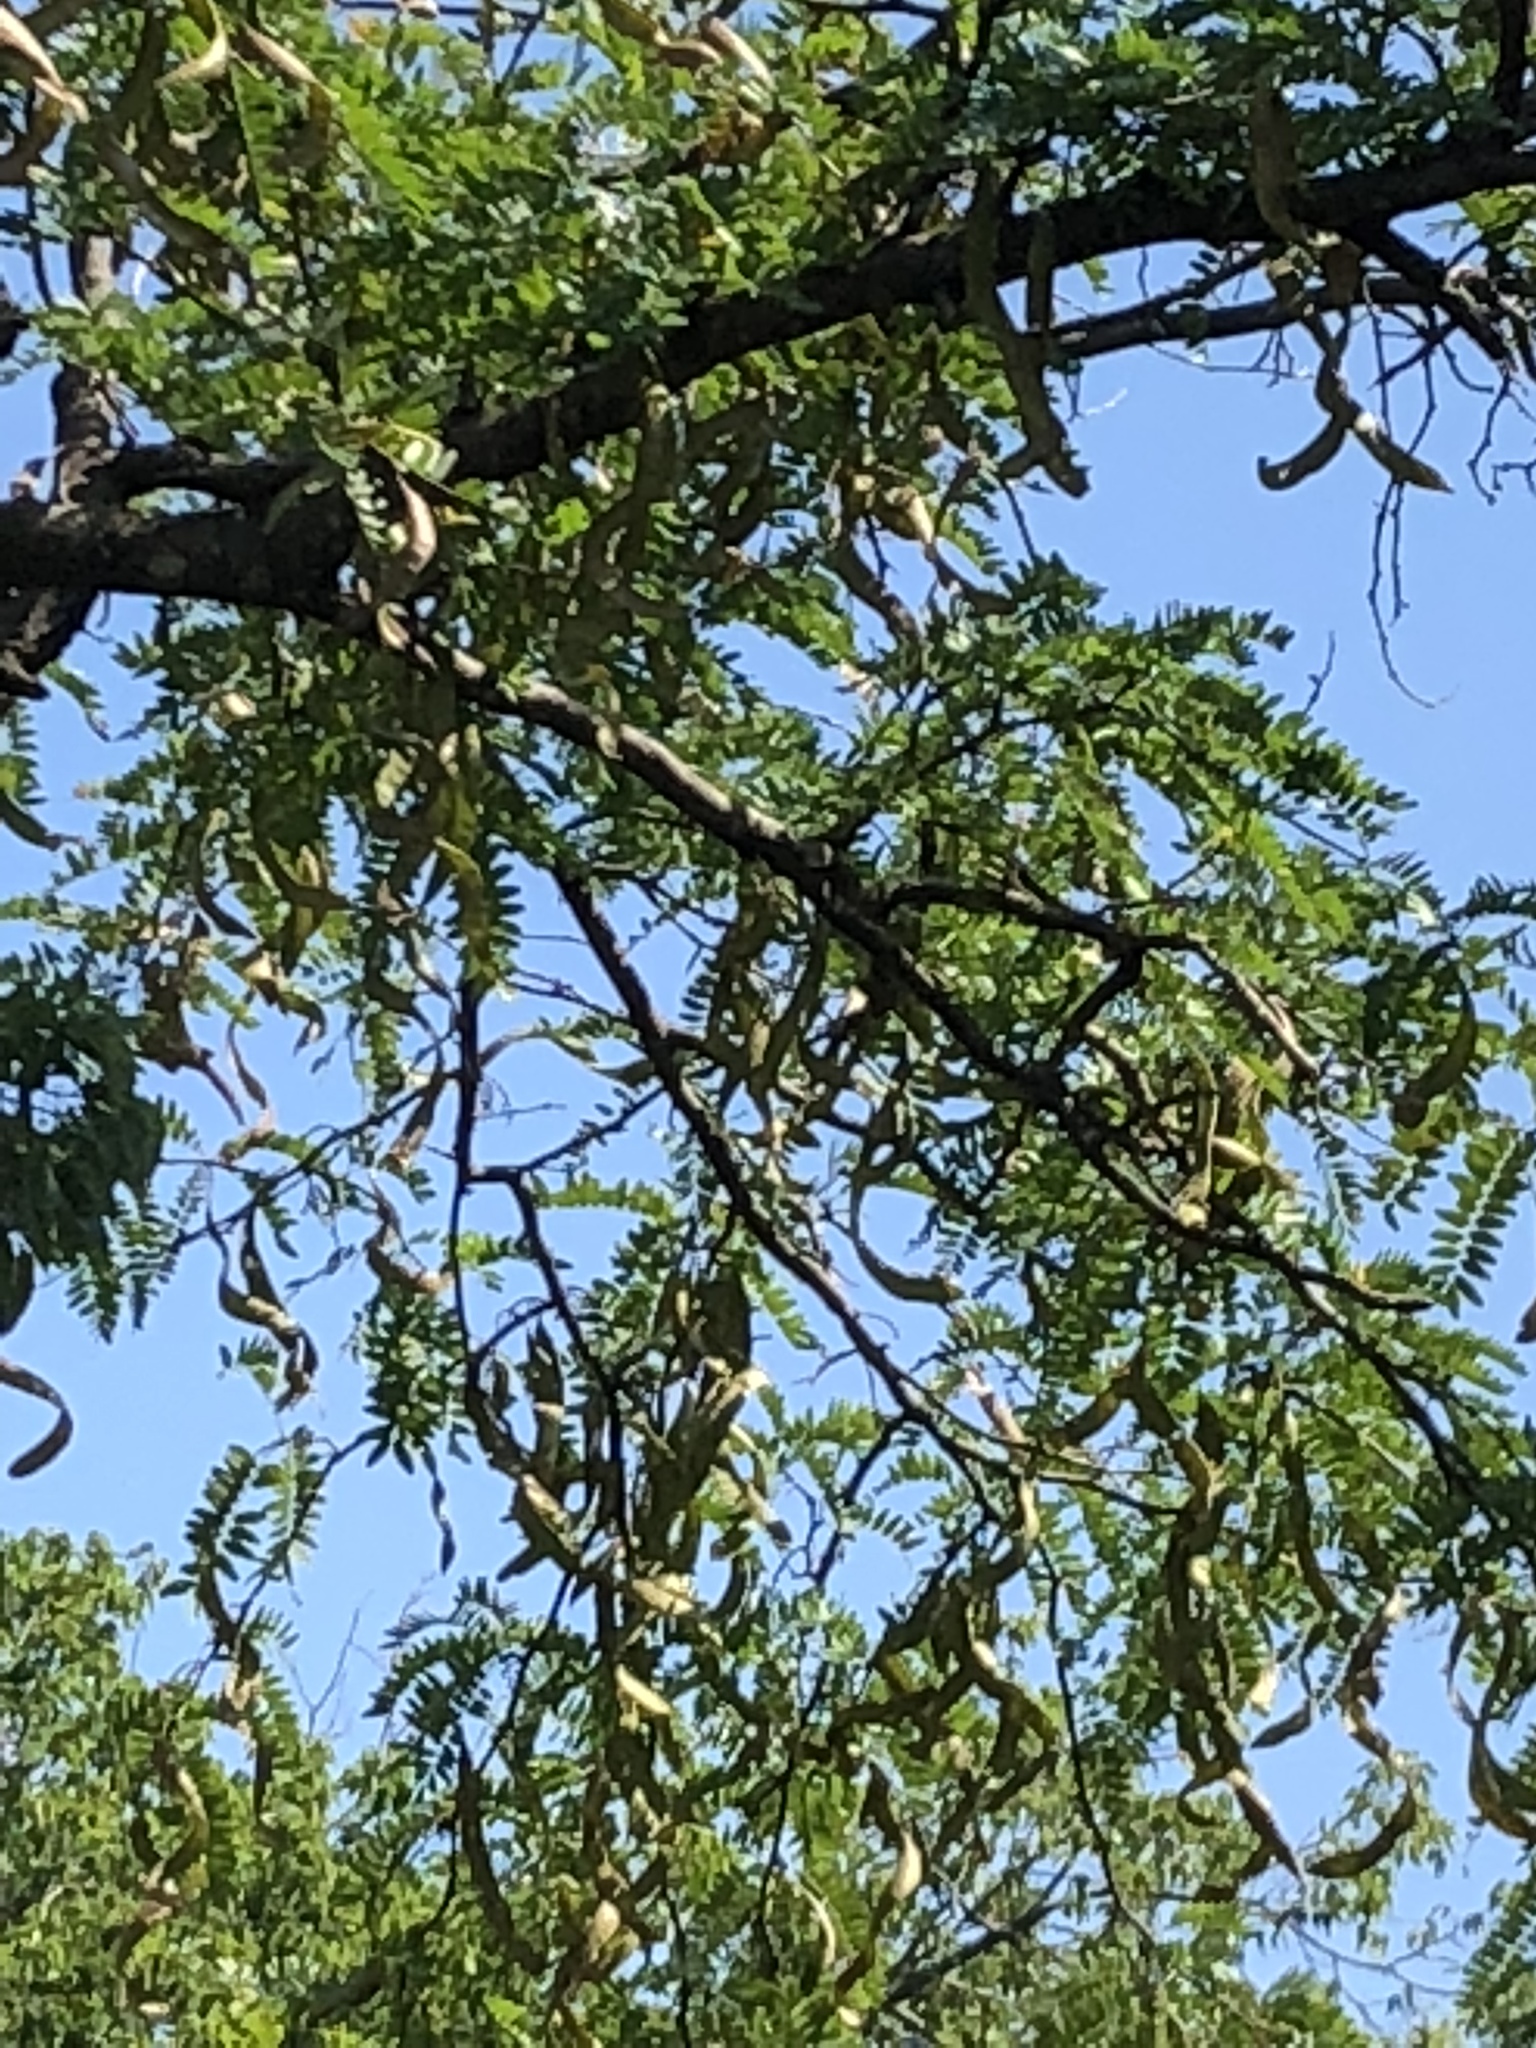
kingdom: Plantae
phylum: Tracheophyta
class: Magnoliopsida
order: Fabales
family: Fabaceae
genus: Gleditsia
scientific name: Gleditsia triacanthos
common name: Common honeylocust
